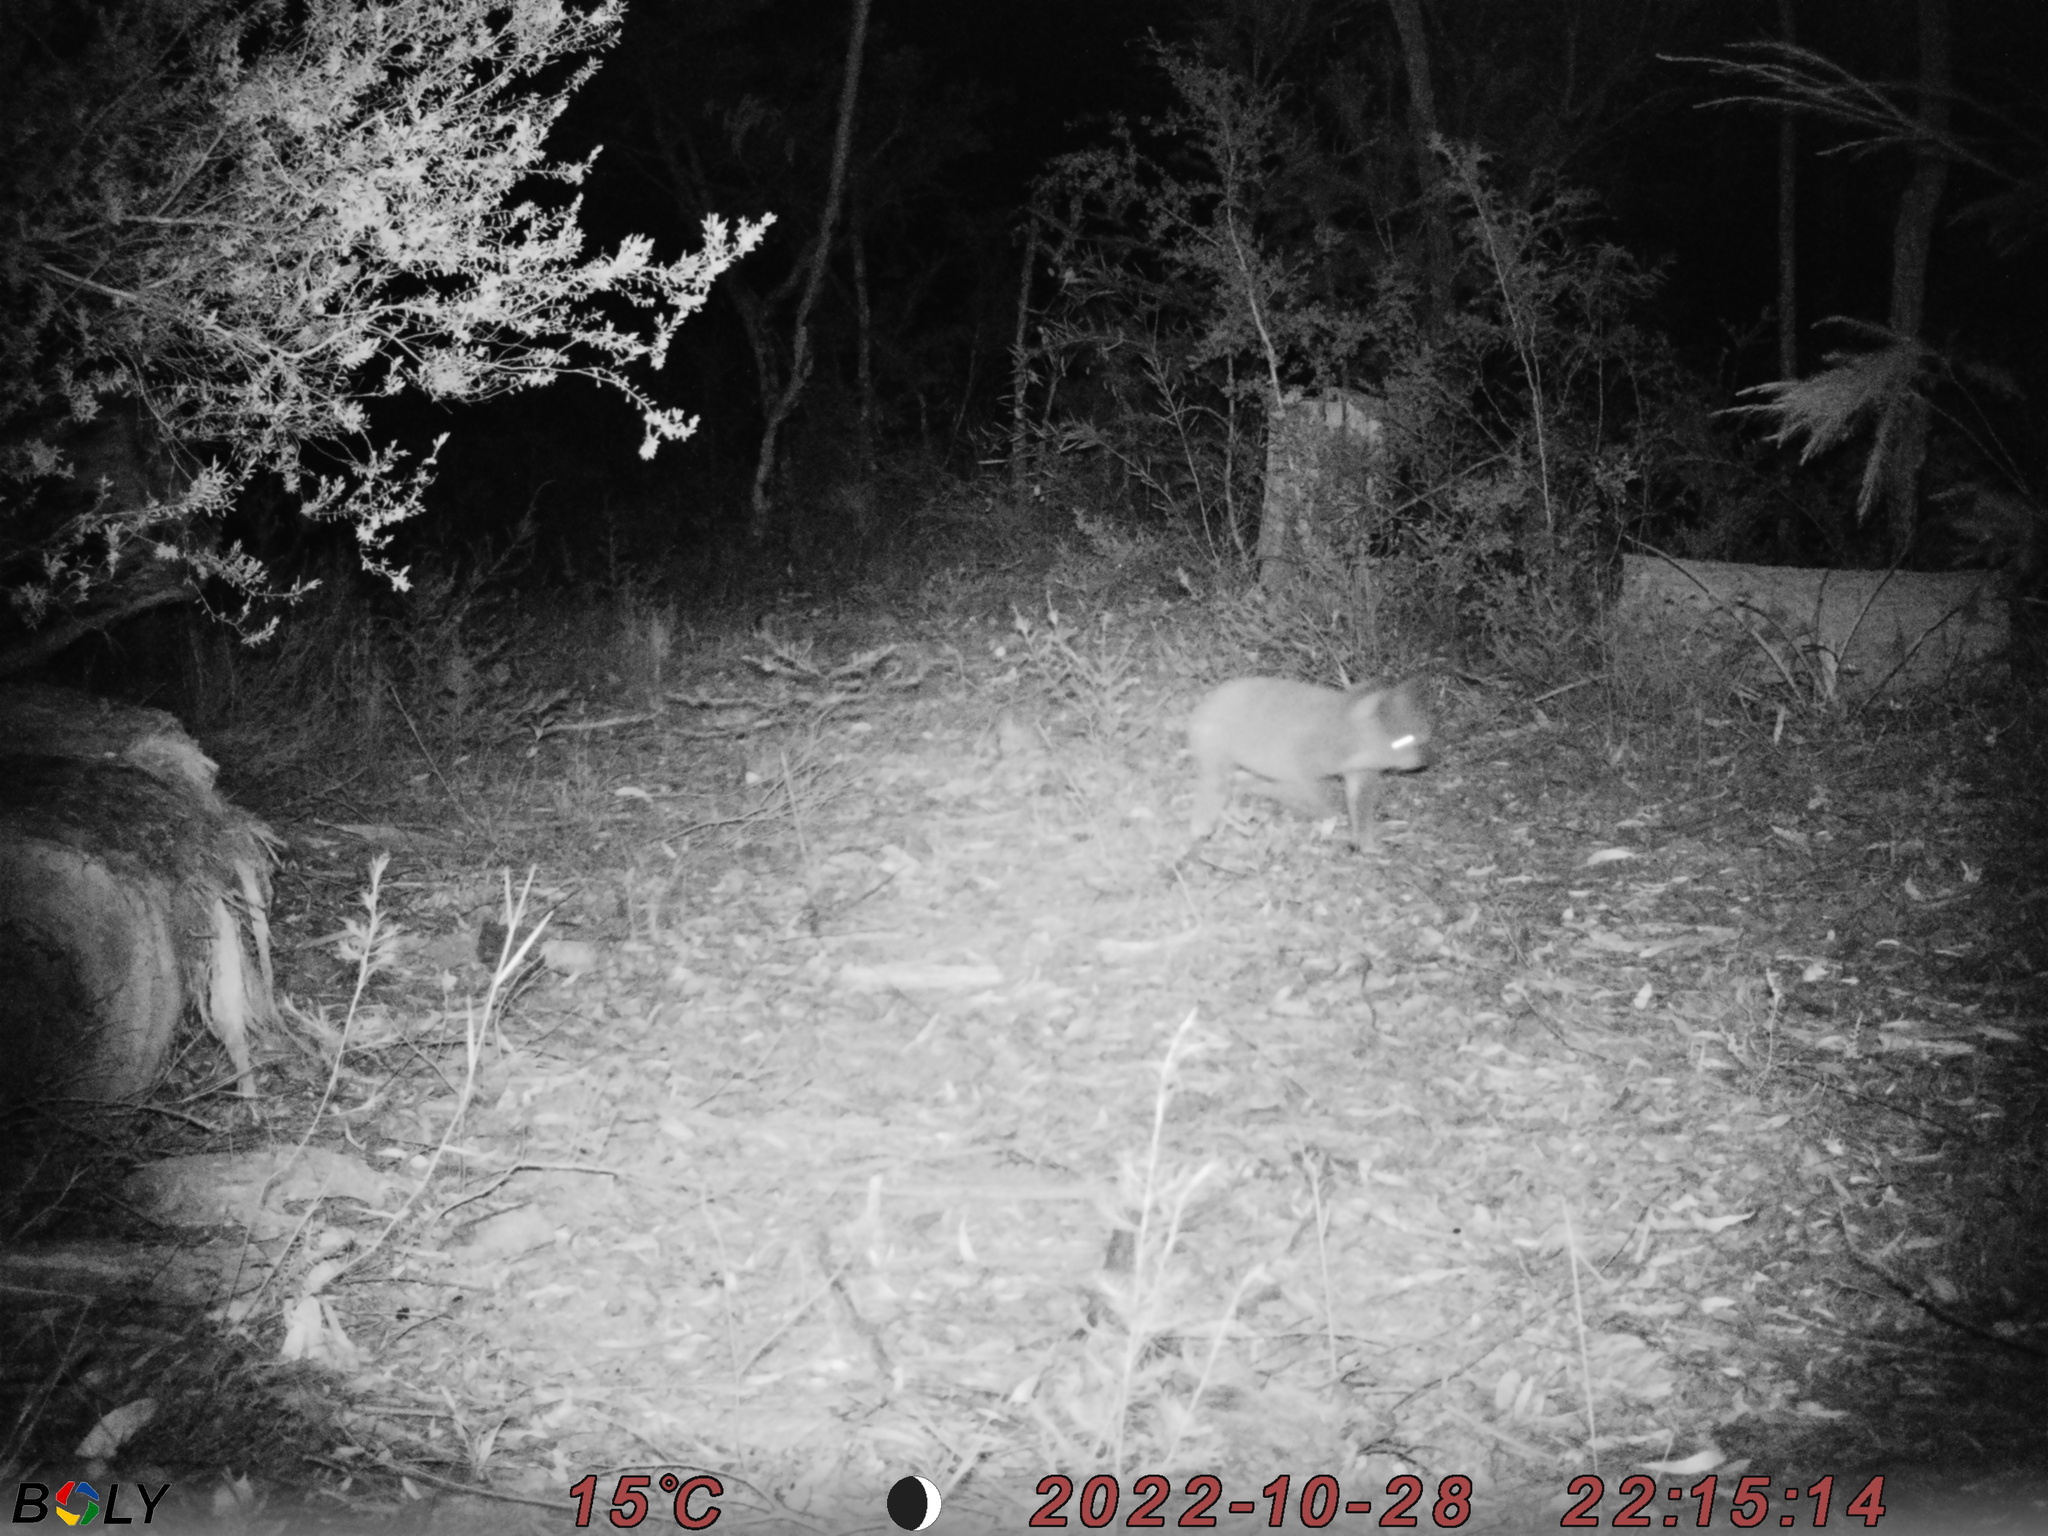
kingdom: Animalia
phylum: Chordata
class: Mammalia
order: Diprotodontia
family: Phascolarctidae
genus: Phascolarctos
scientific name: Phascolarctos cinereus
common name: Koala
